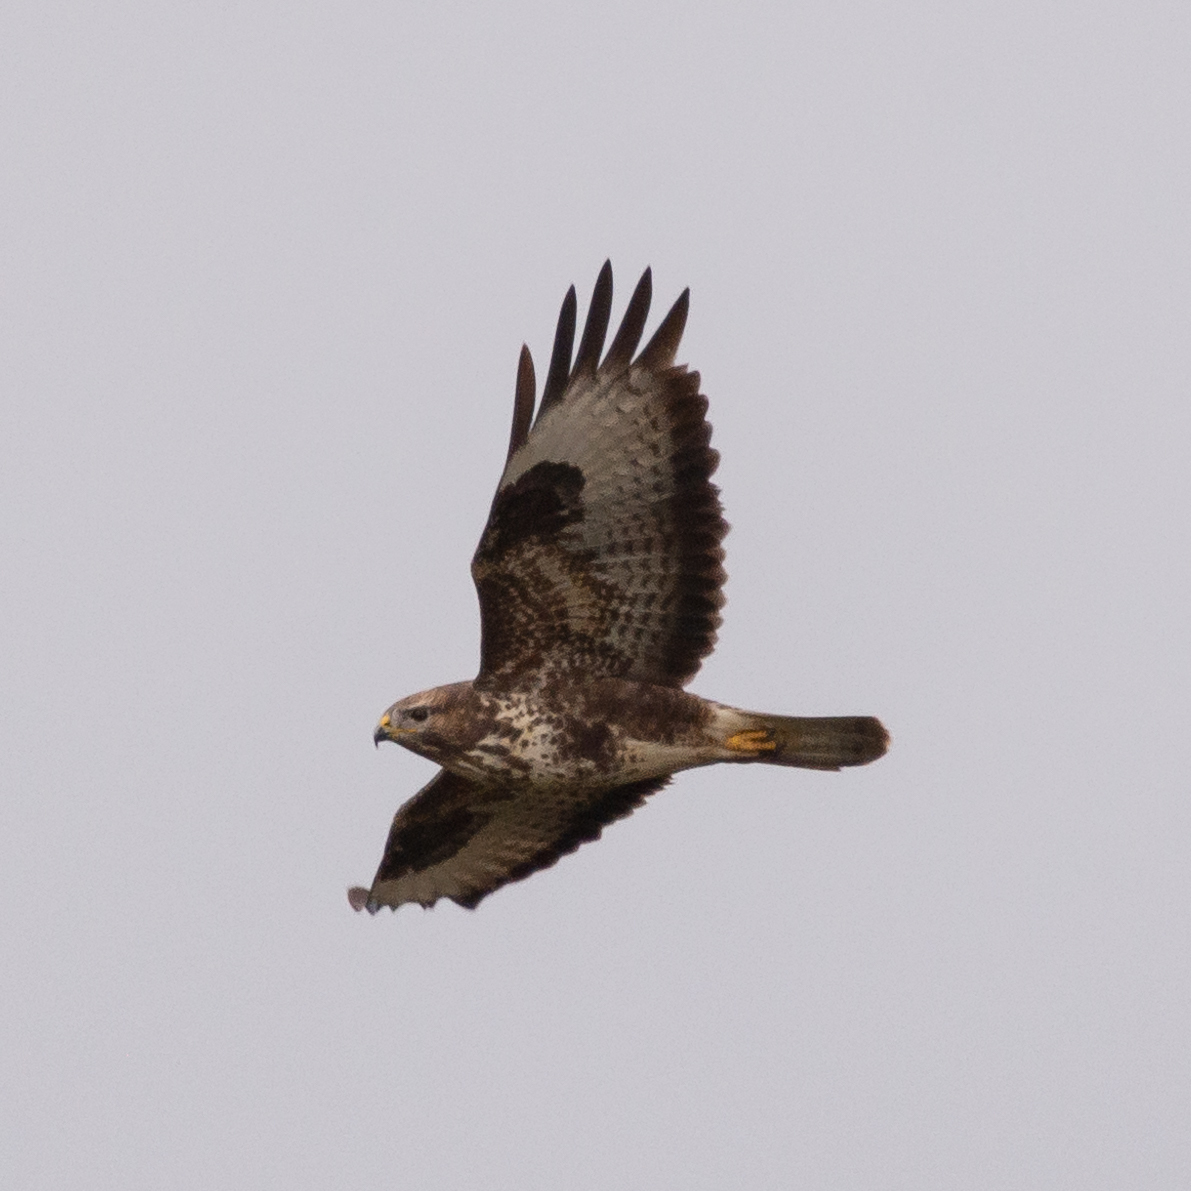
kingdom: Animalia
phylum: Chordata
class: Aves
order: Accipitriformes
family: Accipitridae
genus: Buteo
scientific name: Buteo buteo
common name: Common buzzard
